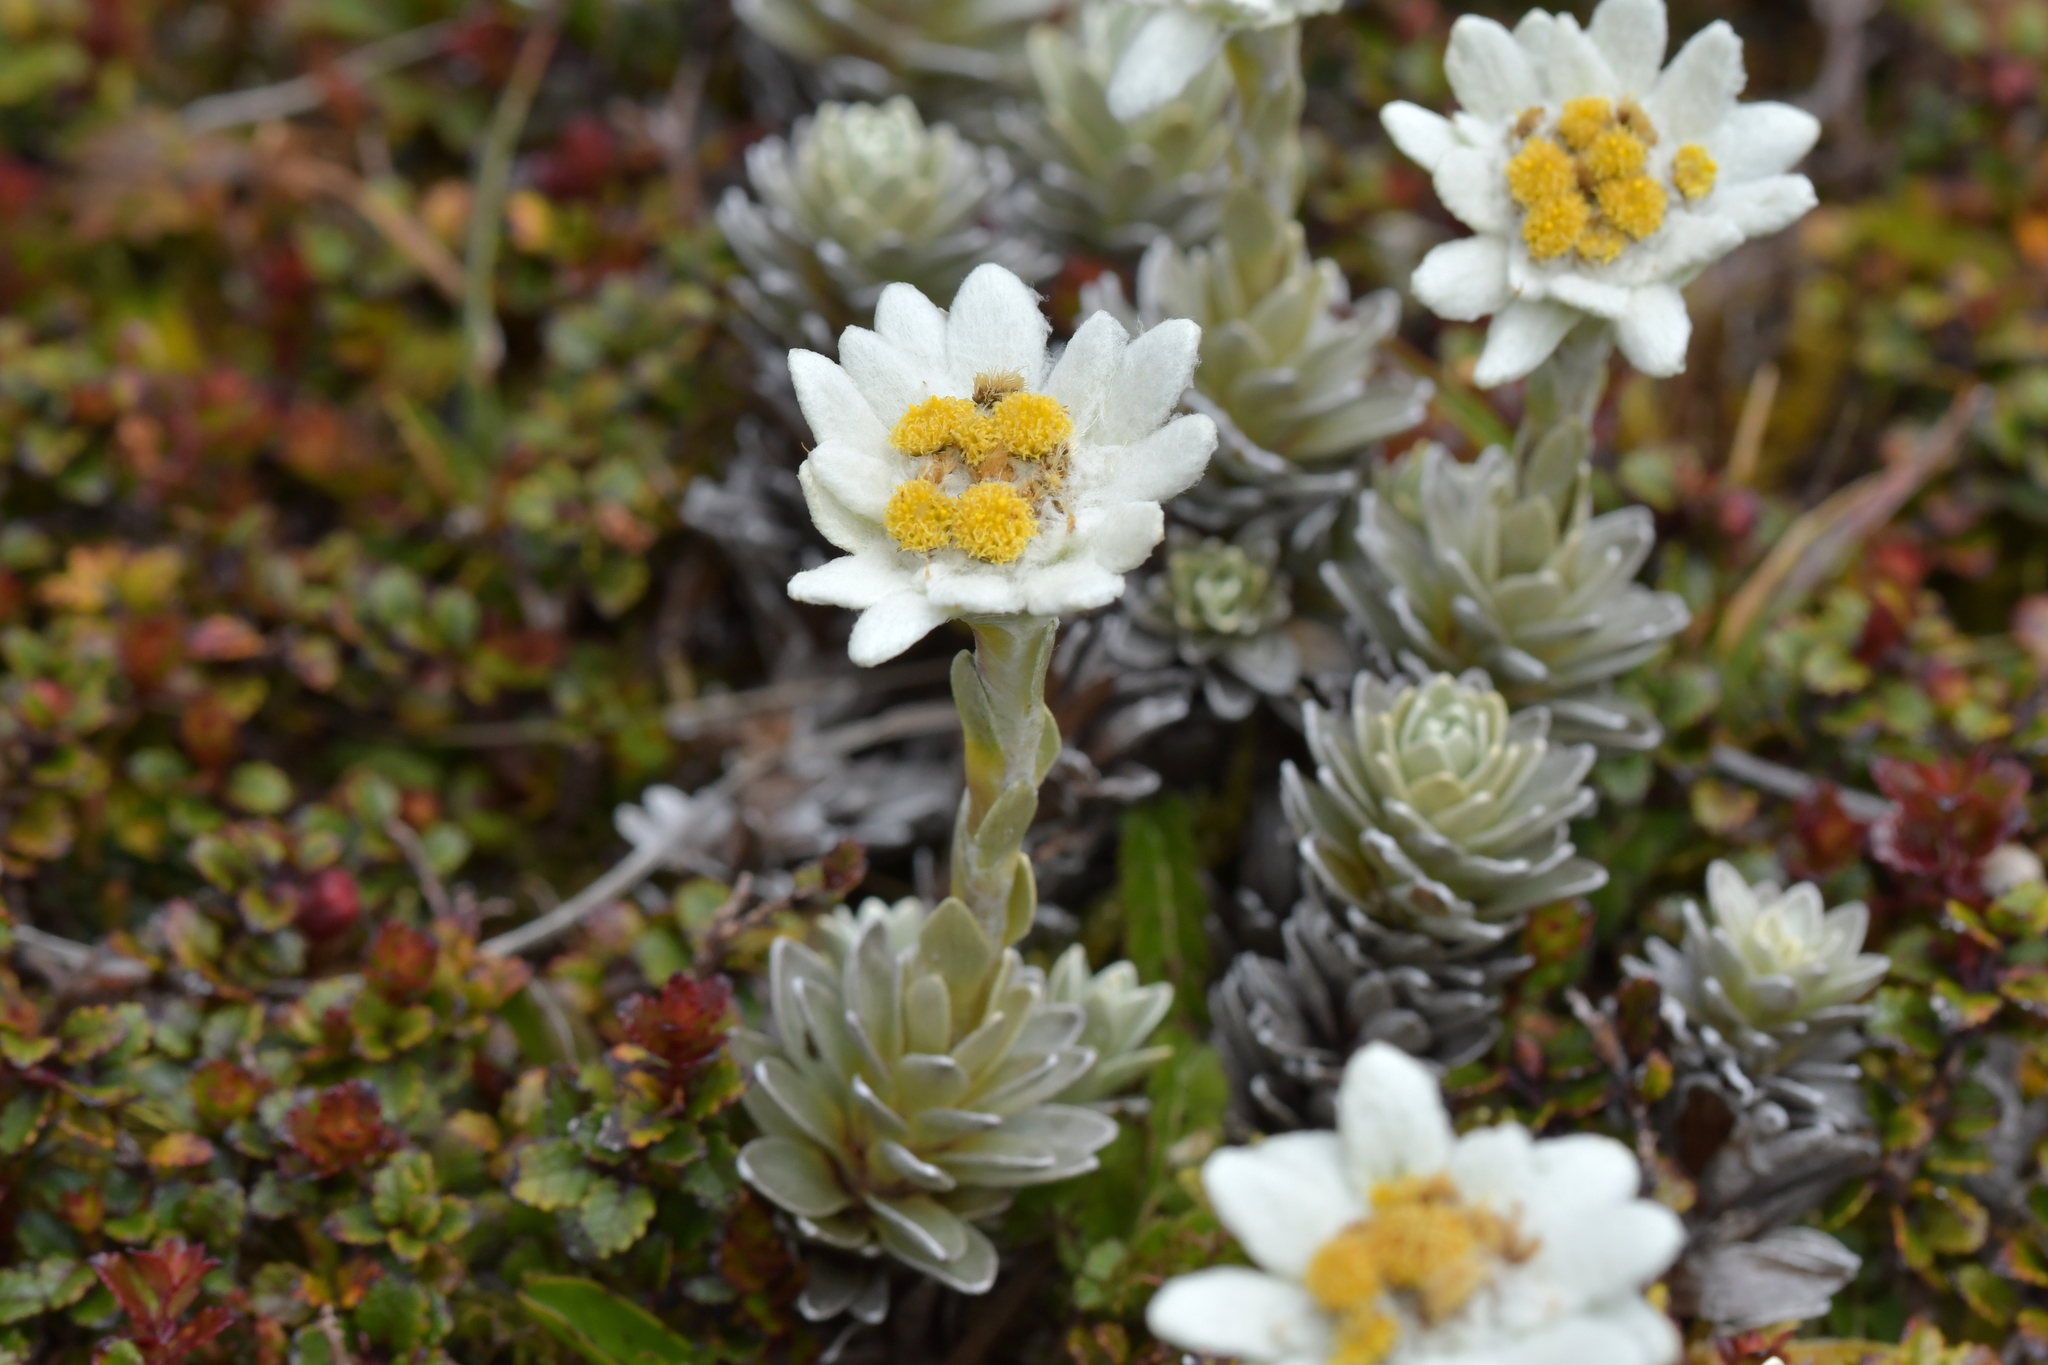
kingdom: Plantae
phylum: Tracheophyta
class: Magnoliopsida
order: Asterales
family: Asteraceae
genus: Leucogenes
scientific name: Leucogenes leontopodium
